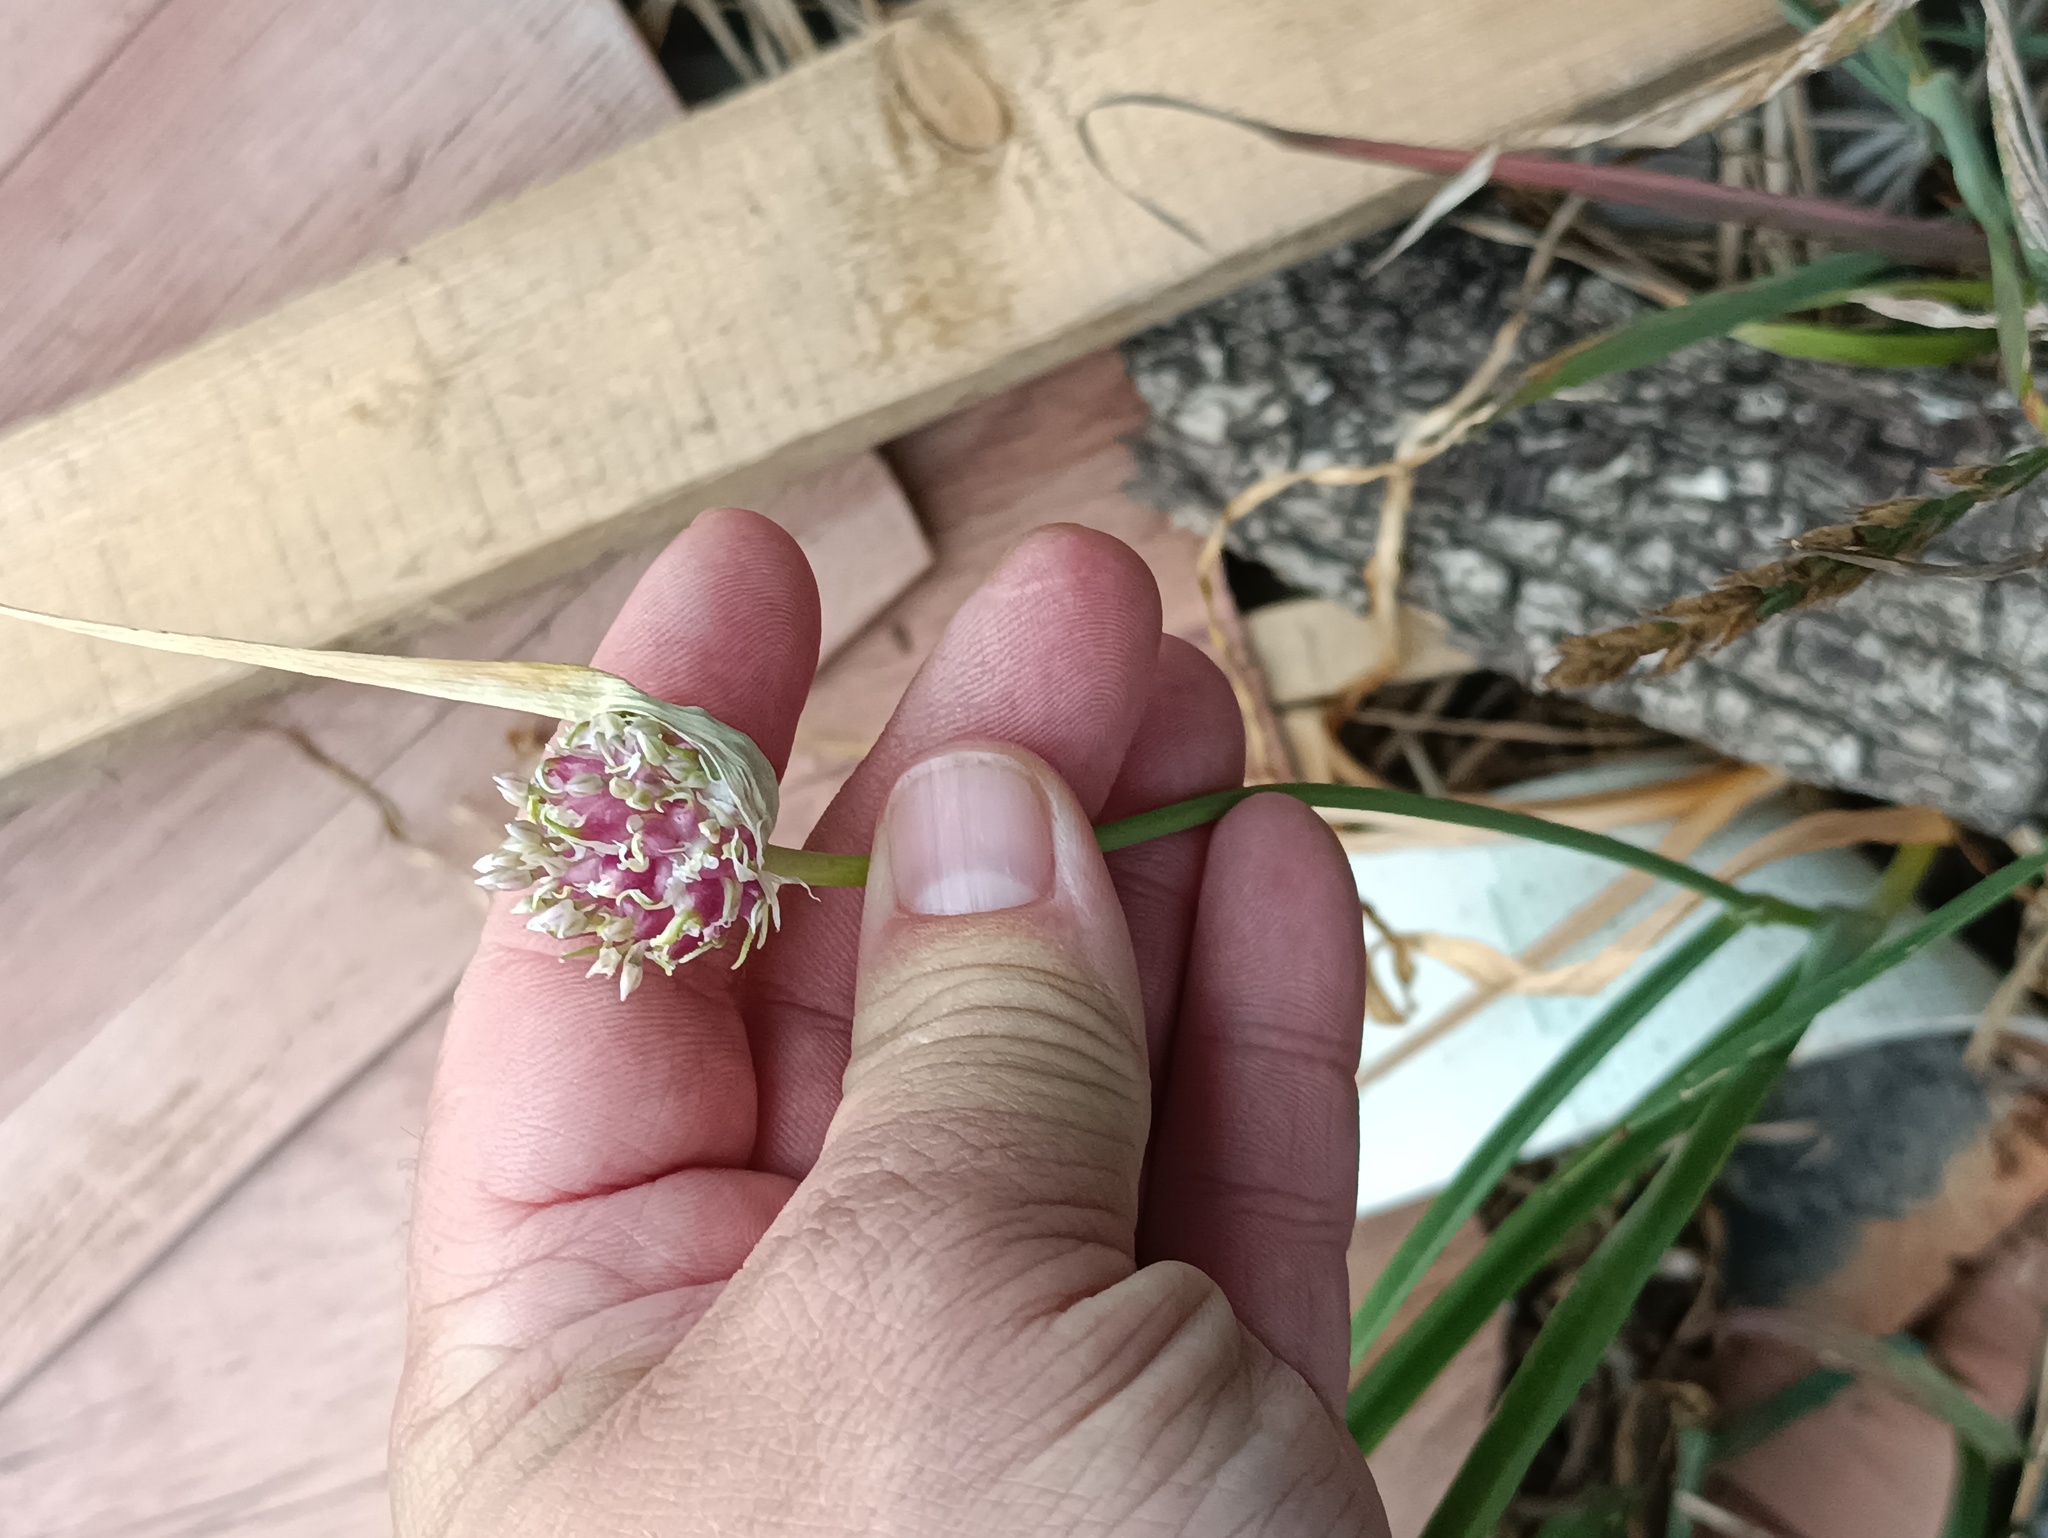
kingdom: Plantae
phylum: Tracheophyta
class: Liliopsida
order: Asparagales
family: Amaryllidaceae
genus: Allium
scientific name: Allium sativum
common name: Garlic
